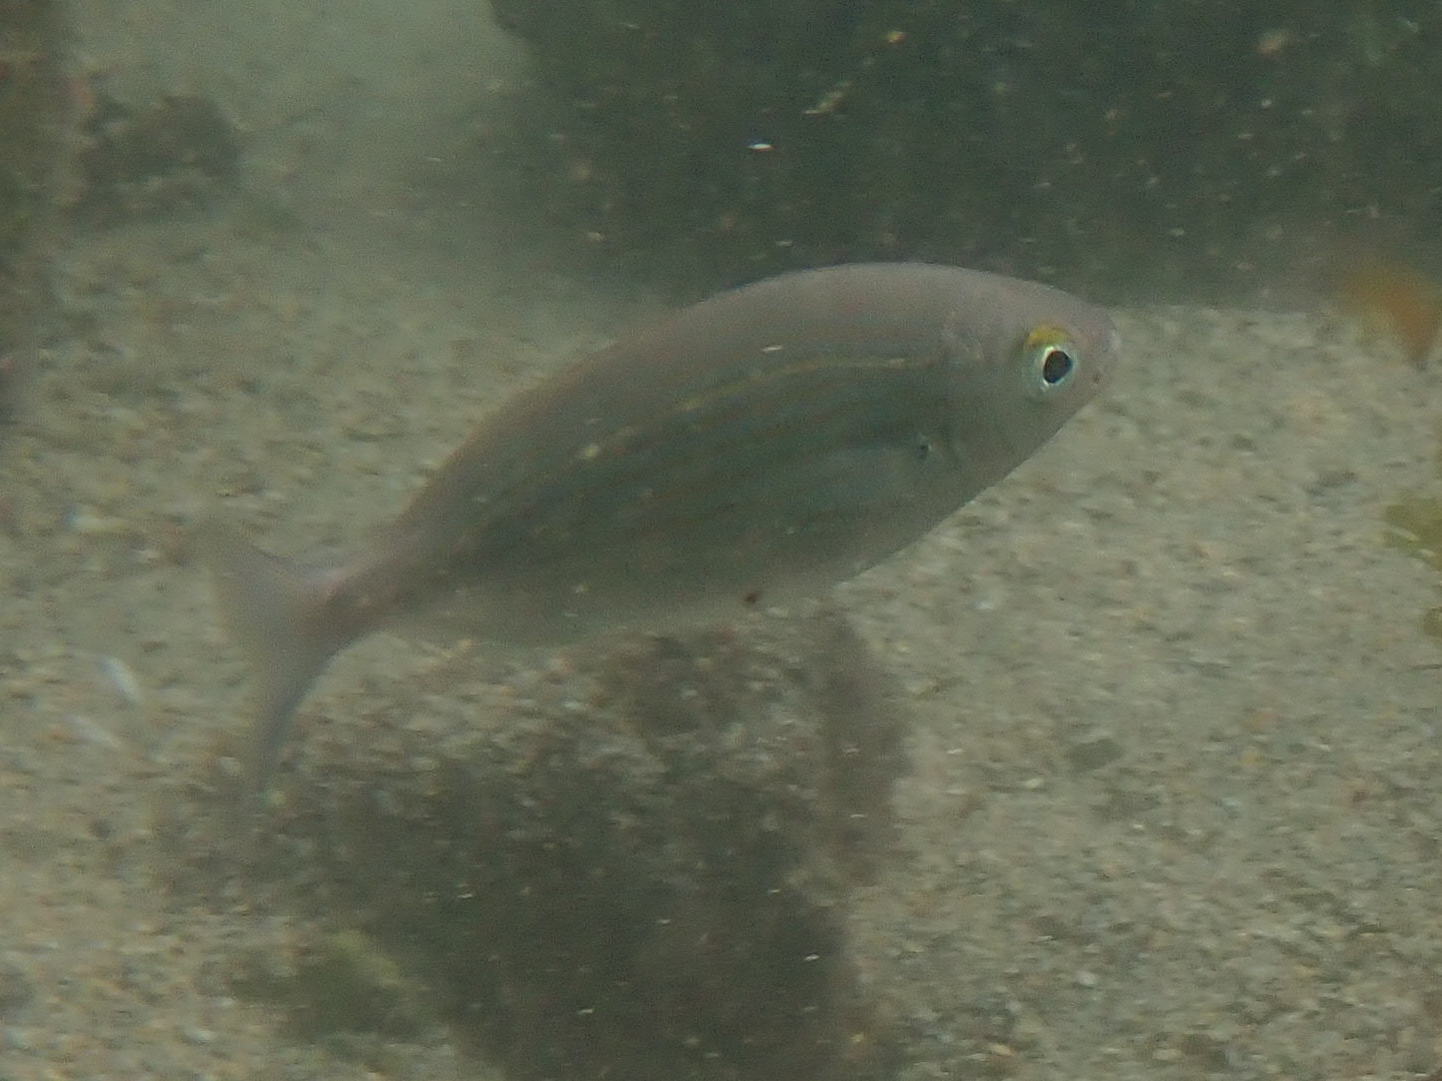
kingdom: Animalia
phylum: Chordata
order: Perciformes
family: Sparidae
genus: Sarpa
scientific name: Sarpa salpa
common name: Salema
